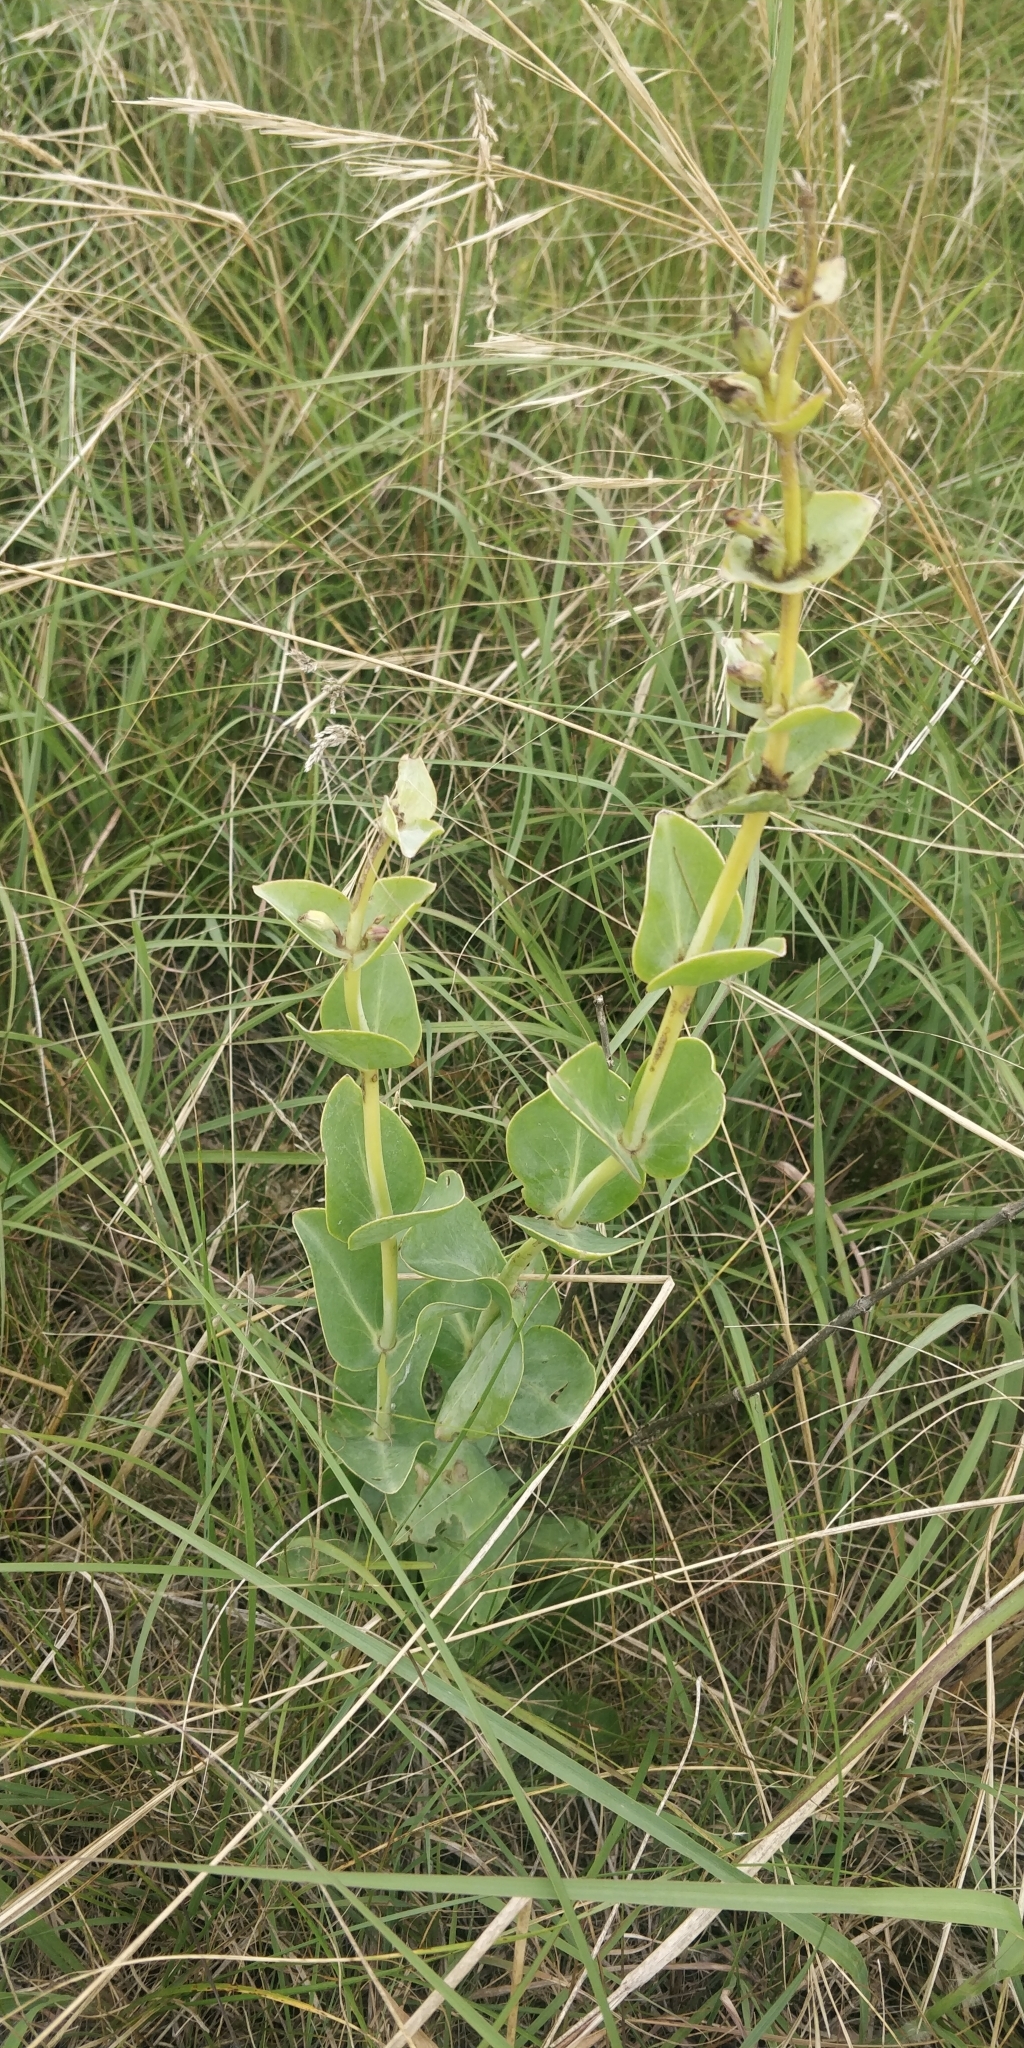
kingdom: Plantae
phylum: Tracheophyta
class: Magnoliopsida
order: Lamiales
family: Plantaginaceae
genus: Penstemon
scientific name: Penstemon
